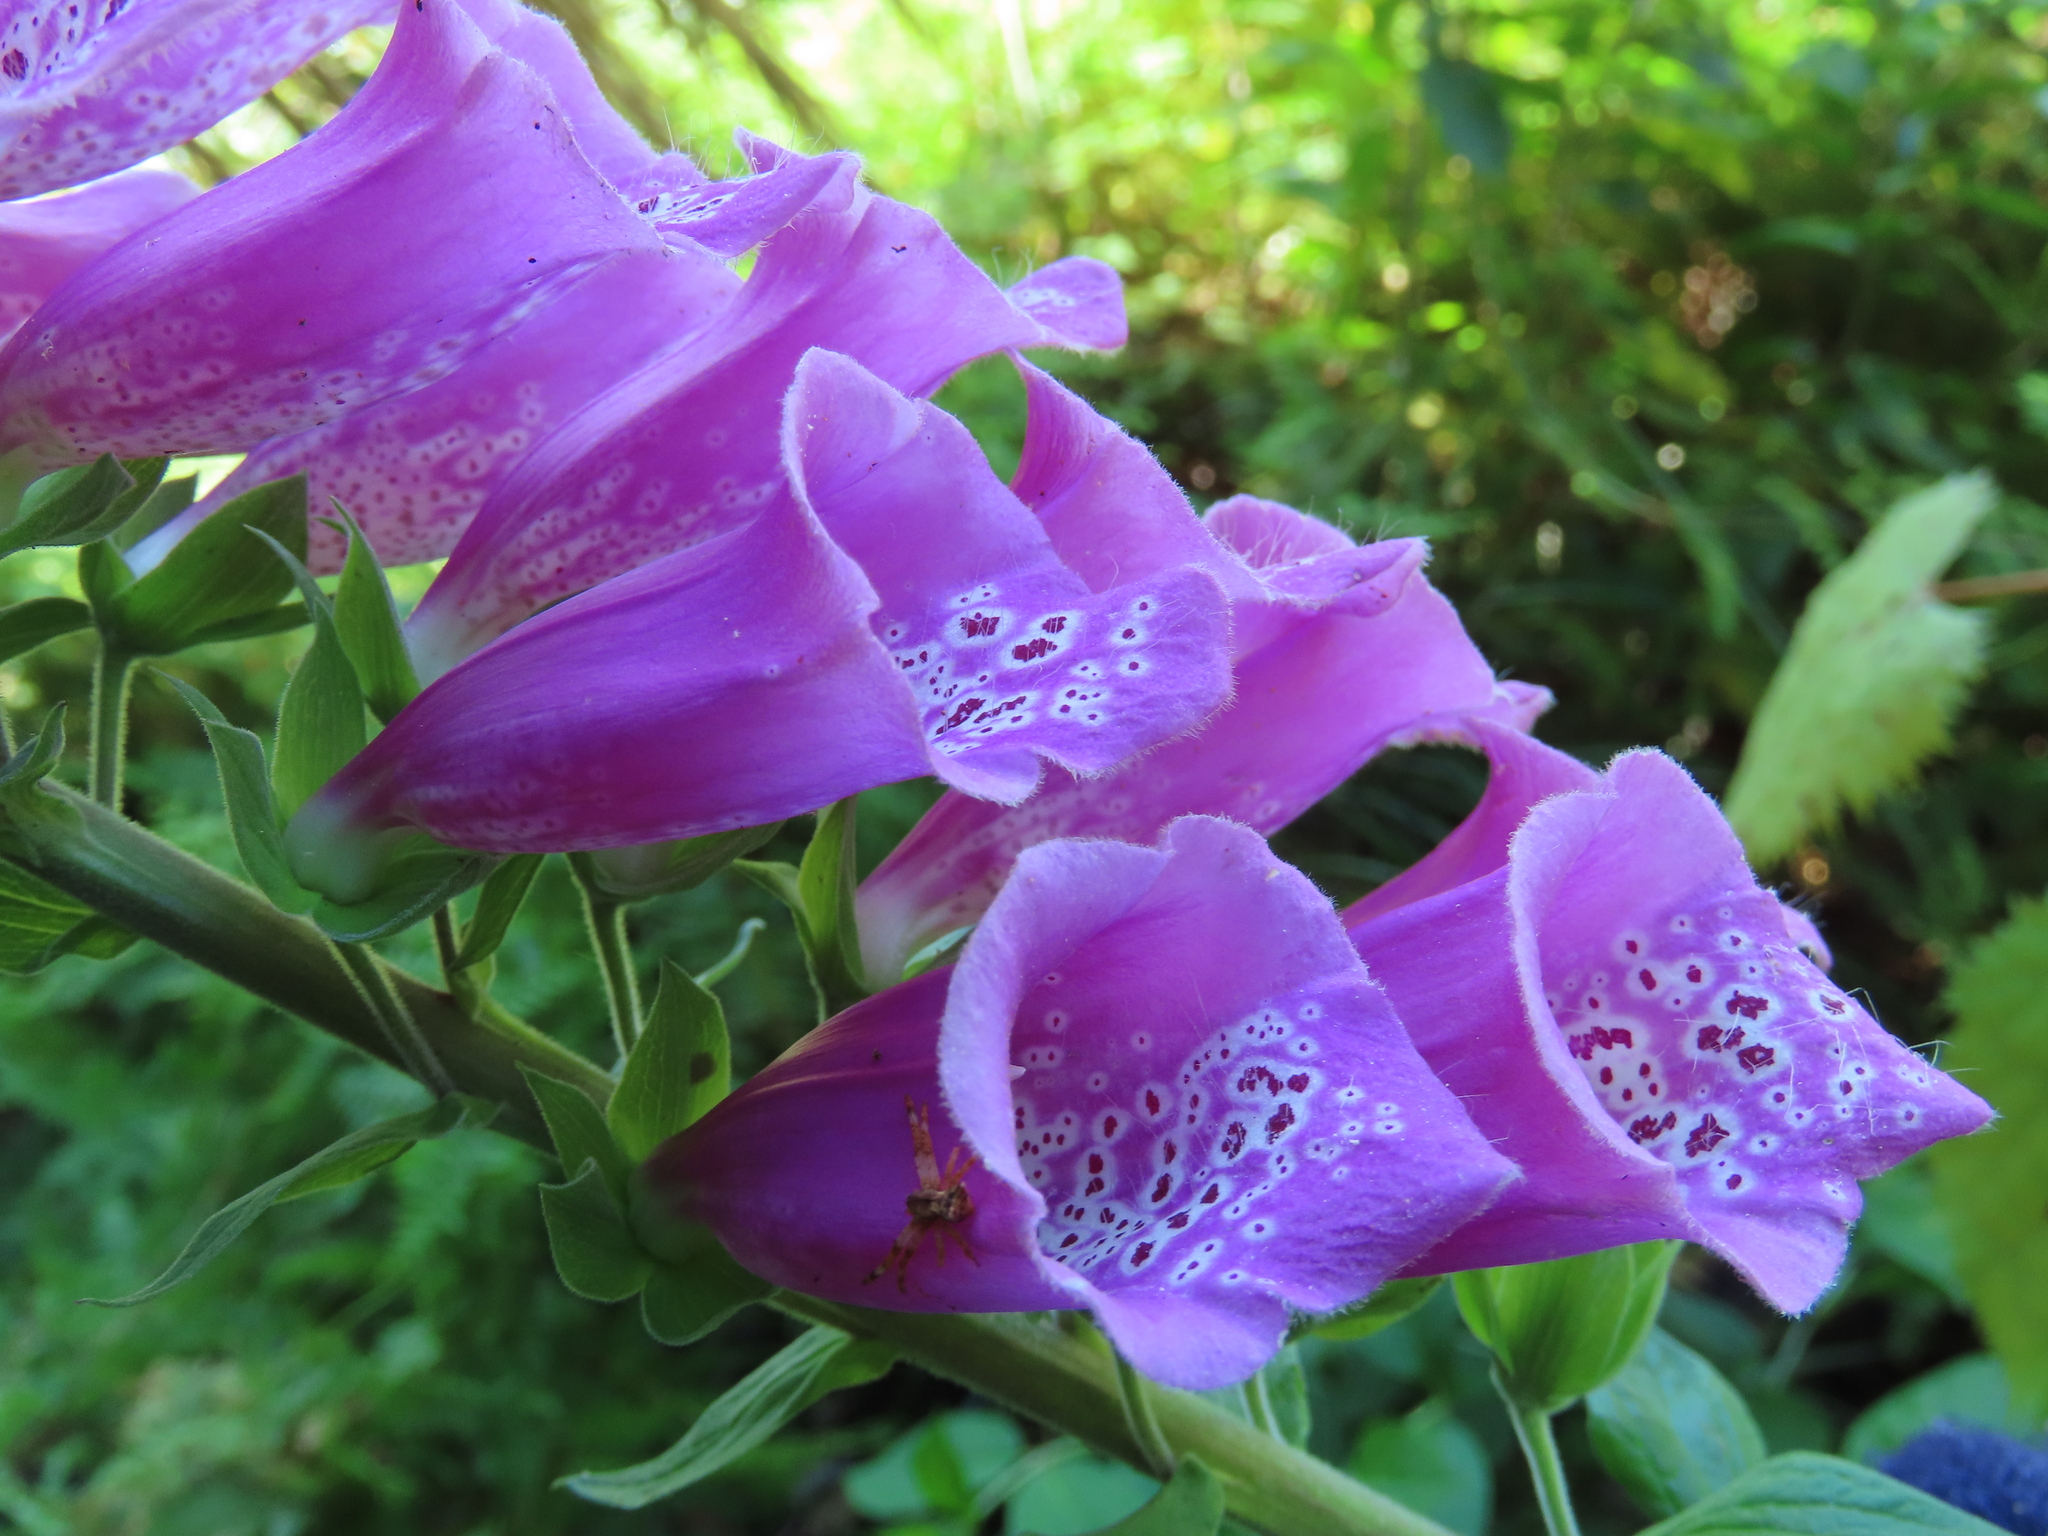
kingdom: Plantae
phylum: Tracheophyta
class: Magnoliopsida
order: Lamiales
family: Plantaginaceae
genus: Digitalis
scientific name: Digitalis purpurea
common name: Foxglove
